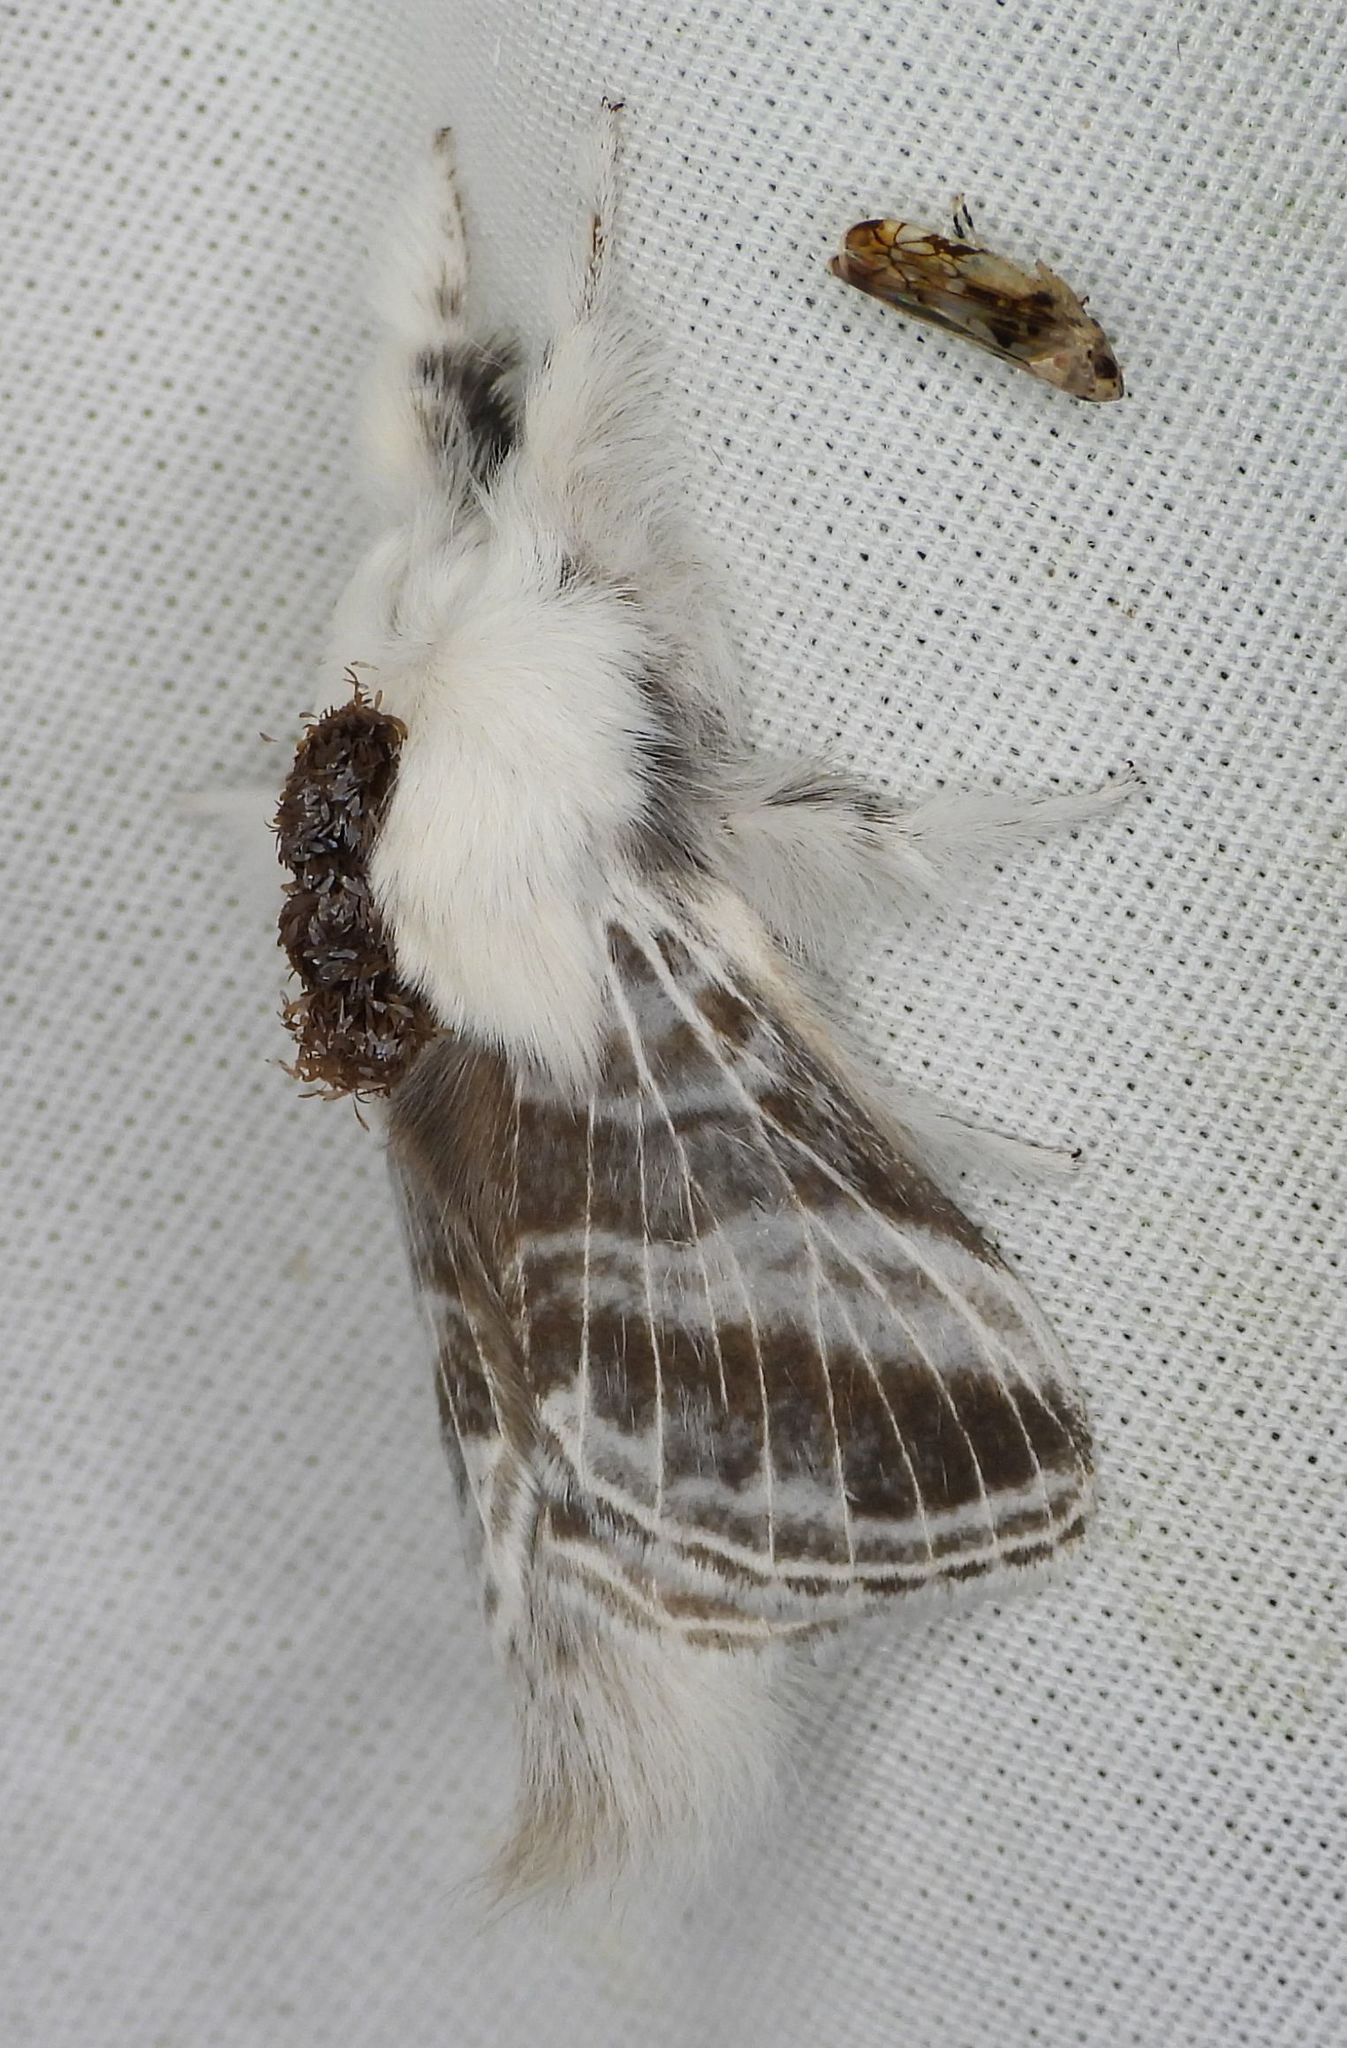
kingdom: Animalia
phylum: Arthropoda
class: Insecta
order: Lepidoptera
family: Lasiocampidae
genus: Tolype
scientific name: Tolype velleda
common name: Large tolype moth
